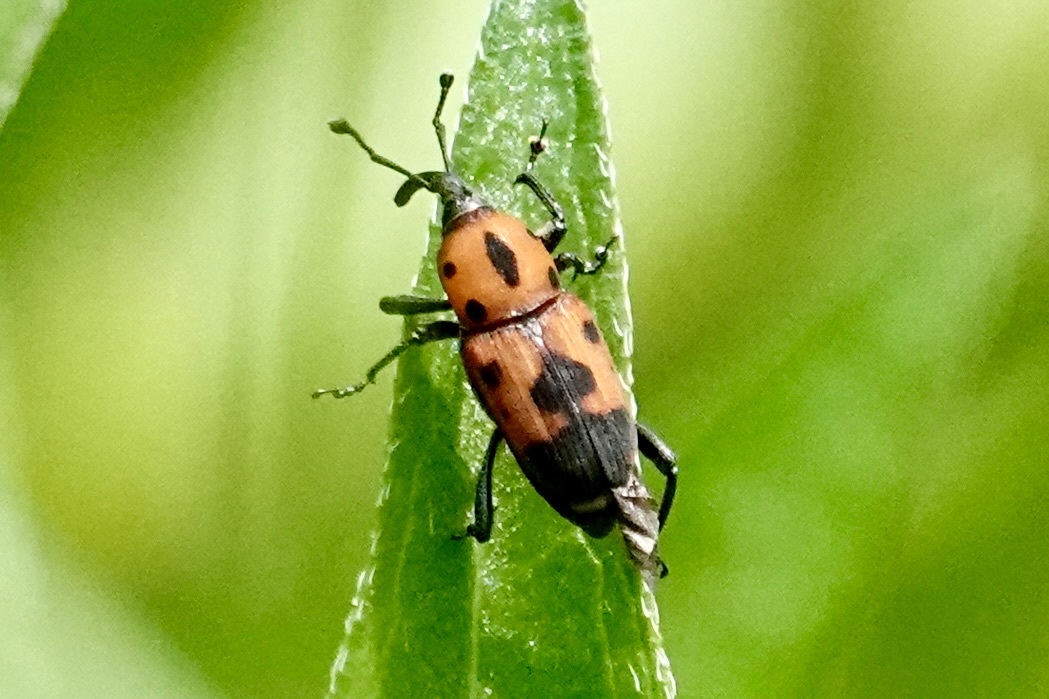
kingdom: Animalia
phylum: Arthropoda
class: Insecta
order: Coleoptera
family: Dryophthoridae
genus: Rhodobaenus
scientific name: Rhodobaenus quinquepunctatus
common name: Cocklebur weevil
